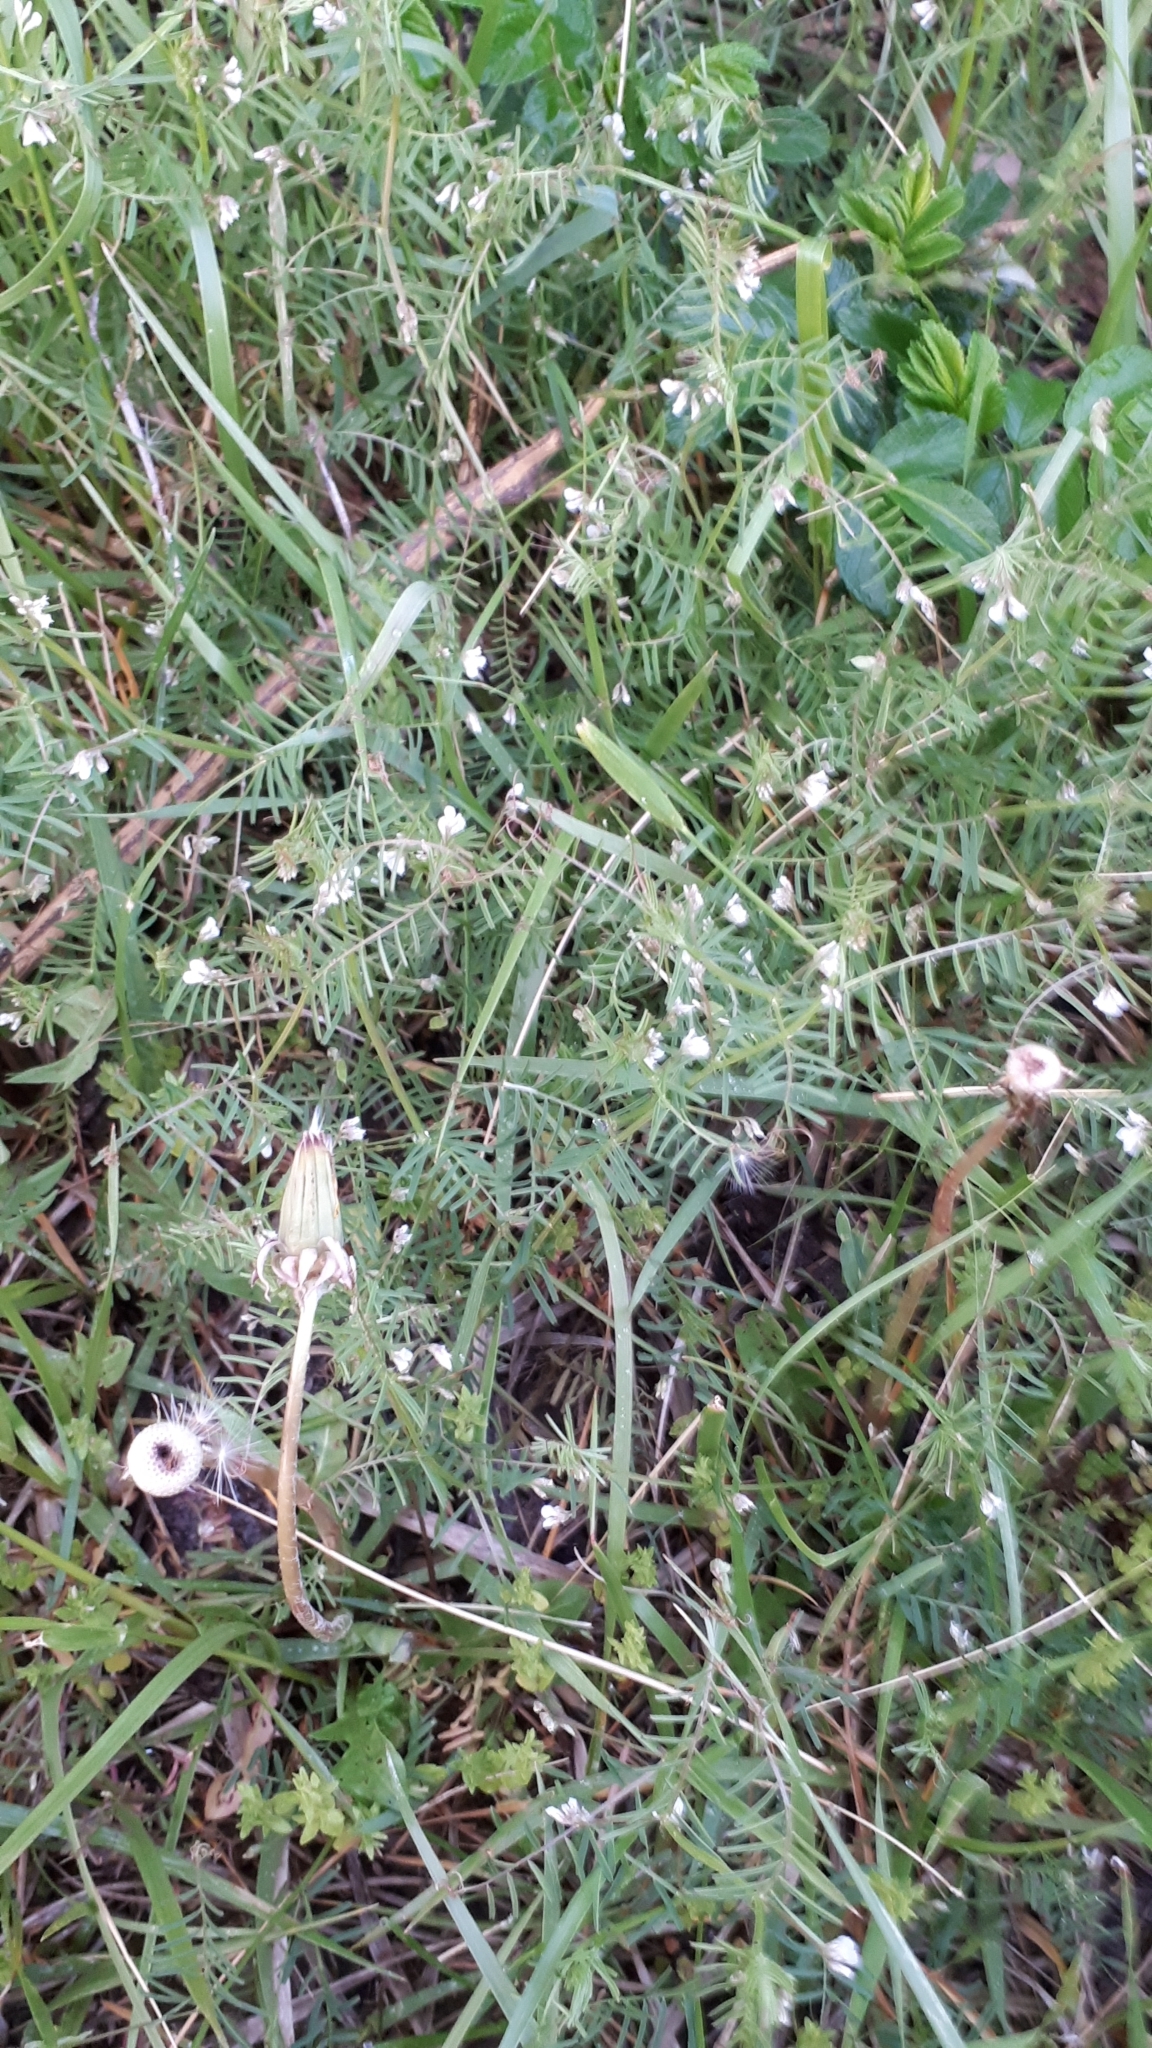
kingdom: Plantae
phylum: Tracheophyta
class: Magnoliopsida
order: Fabales
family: Fabaceae
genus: Vicia
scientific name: Vicia hirsuta
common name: Tiny vetch
